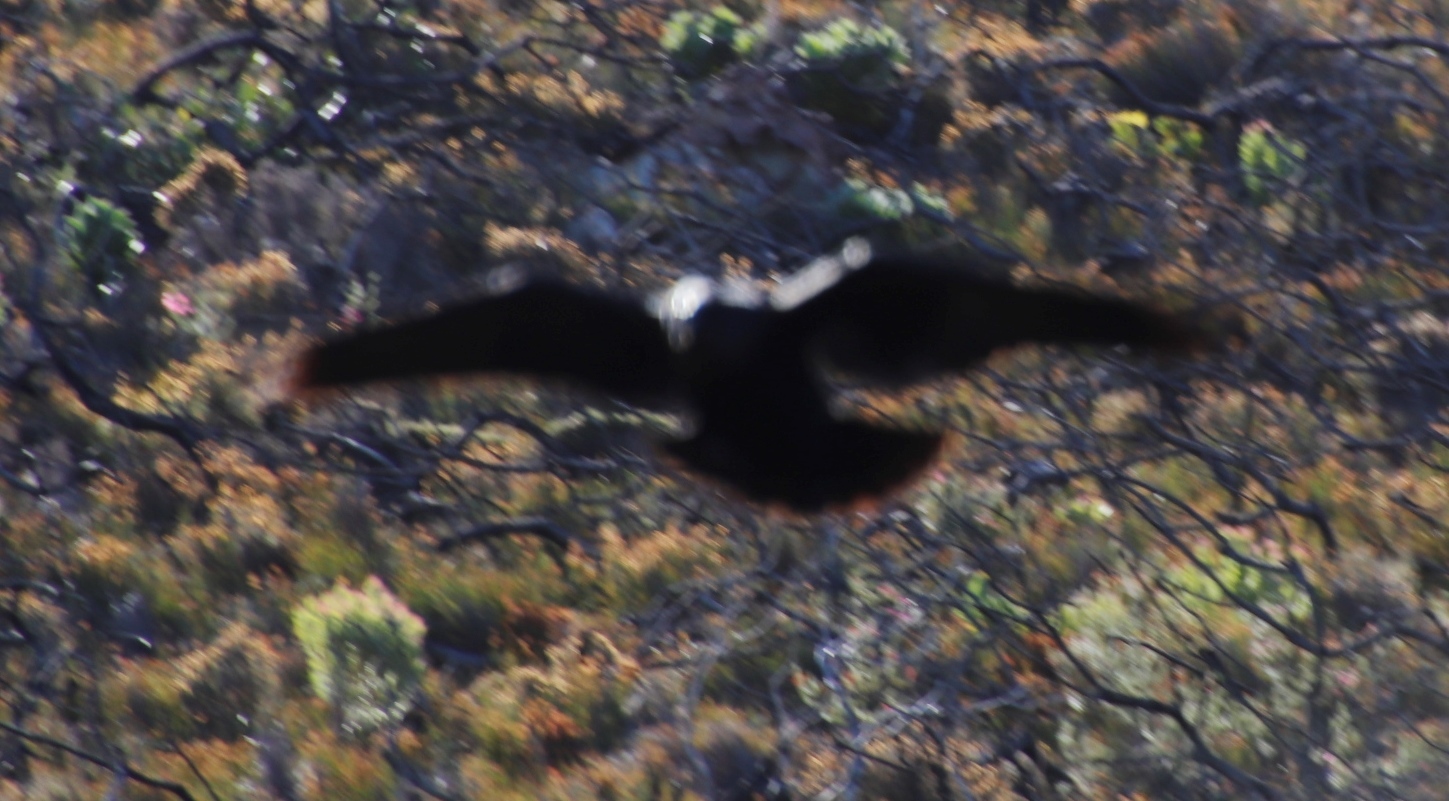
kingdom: Animalia
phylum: Chordata
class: Aves
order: Passeriformes
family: Corvidae
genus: Corvus
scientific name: Corvus albicollis
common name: White-necked raven
